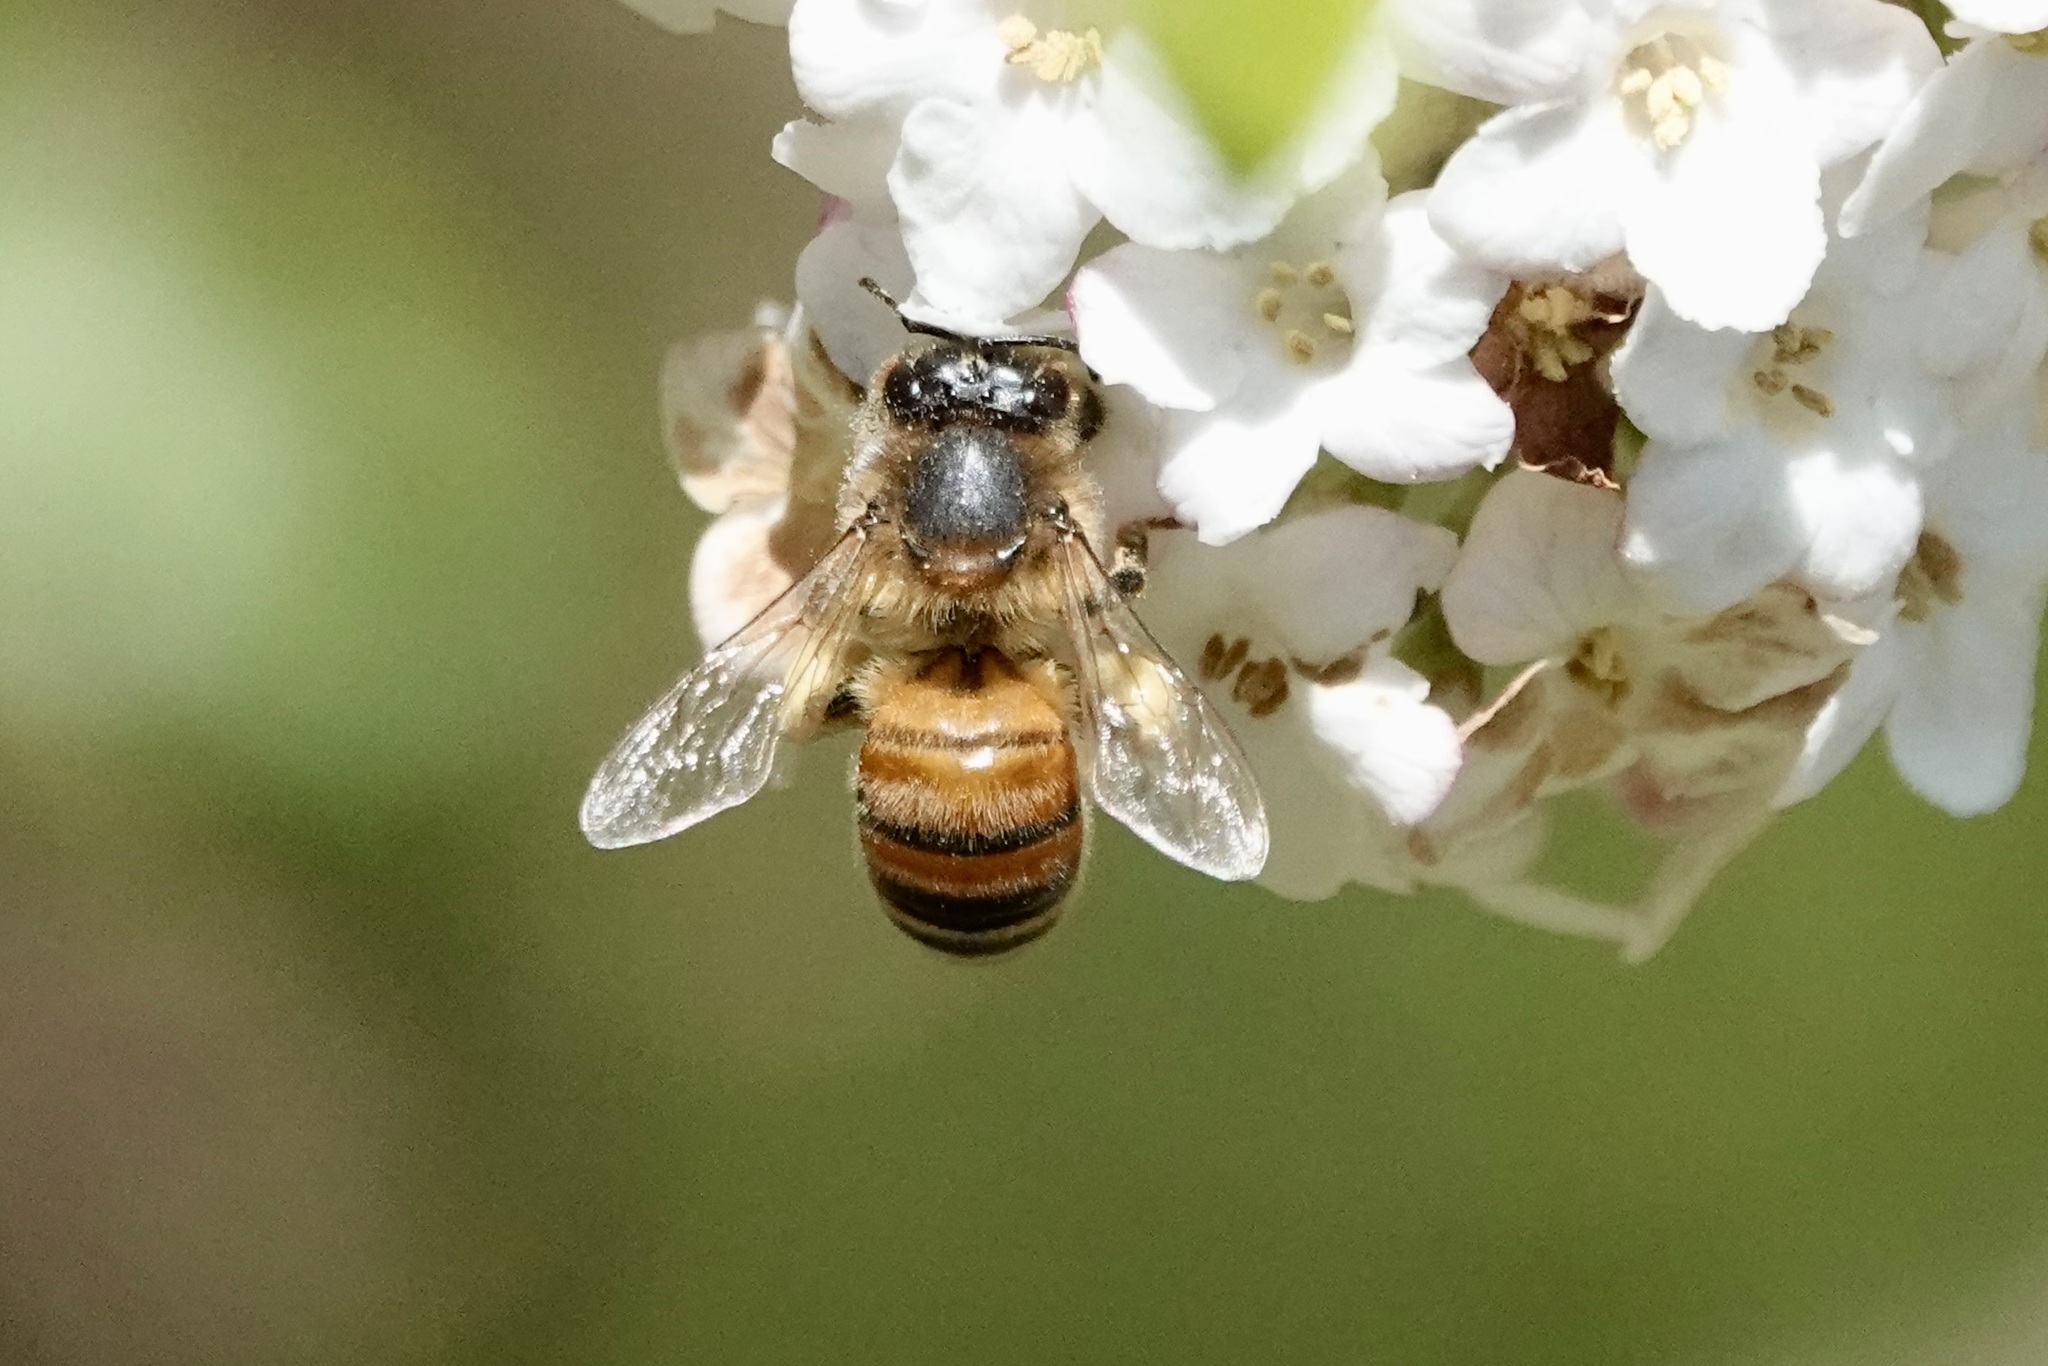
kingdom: Animalia
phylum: Arthropoda
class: Insecta
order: Hymenoptera
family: Apidae
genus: Apis
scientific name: Apis mellifera
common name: Honey bee
